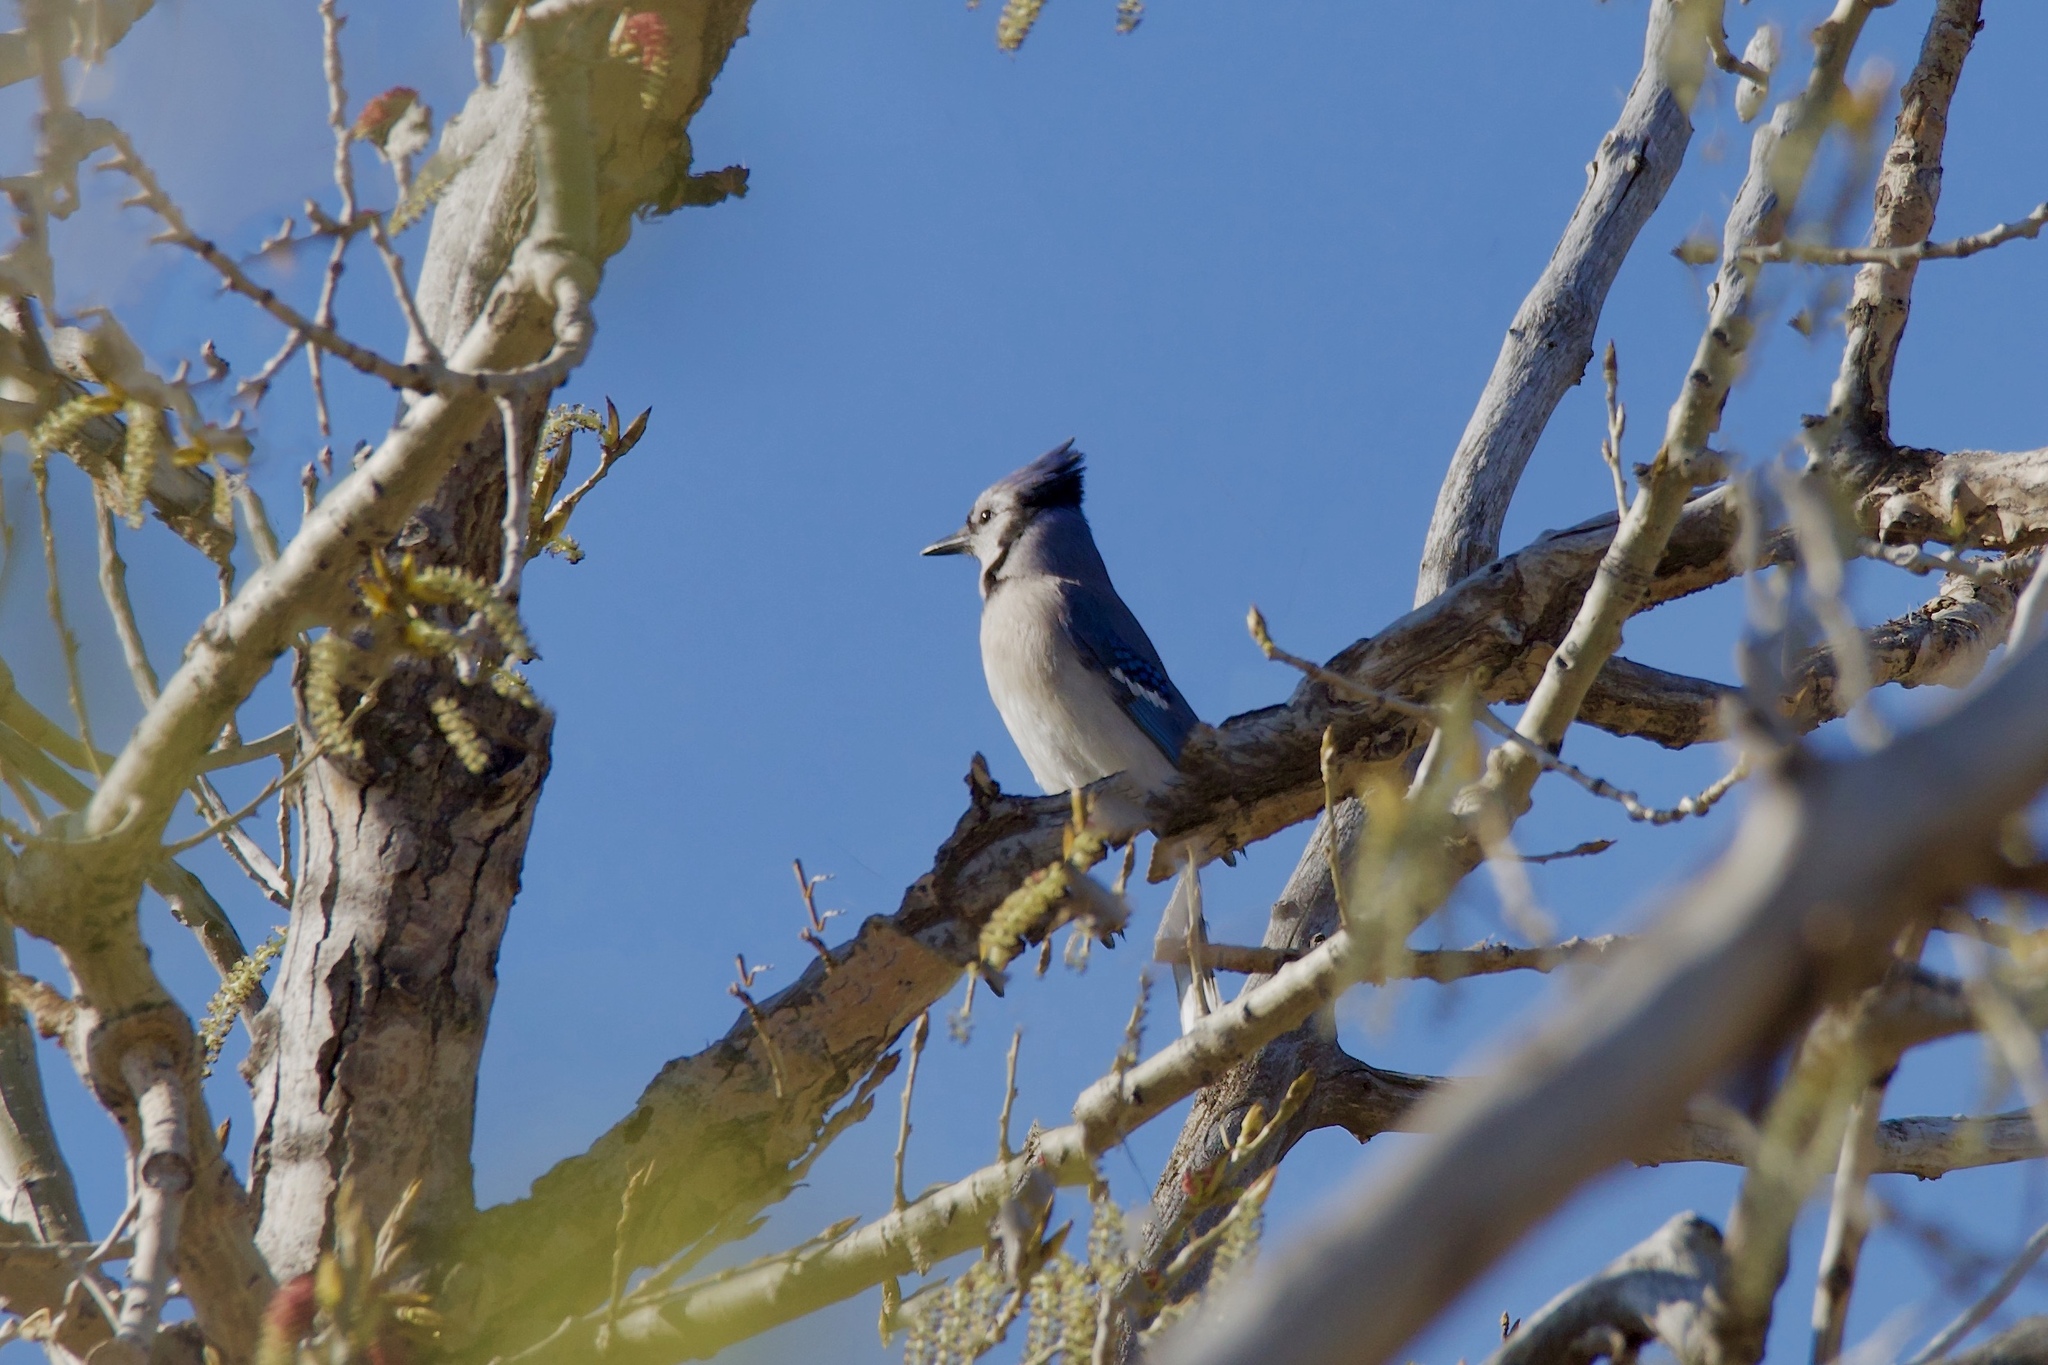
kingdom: Animalia
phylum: Chordata
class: Aves
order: Passeriformes
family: Corvidae
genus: Cyanocitta
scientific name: Cyanocitta cristata
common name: Blue jay
